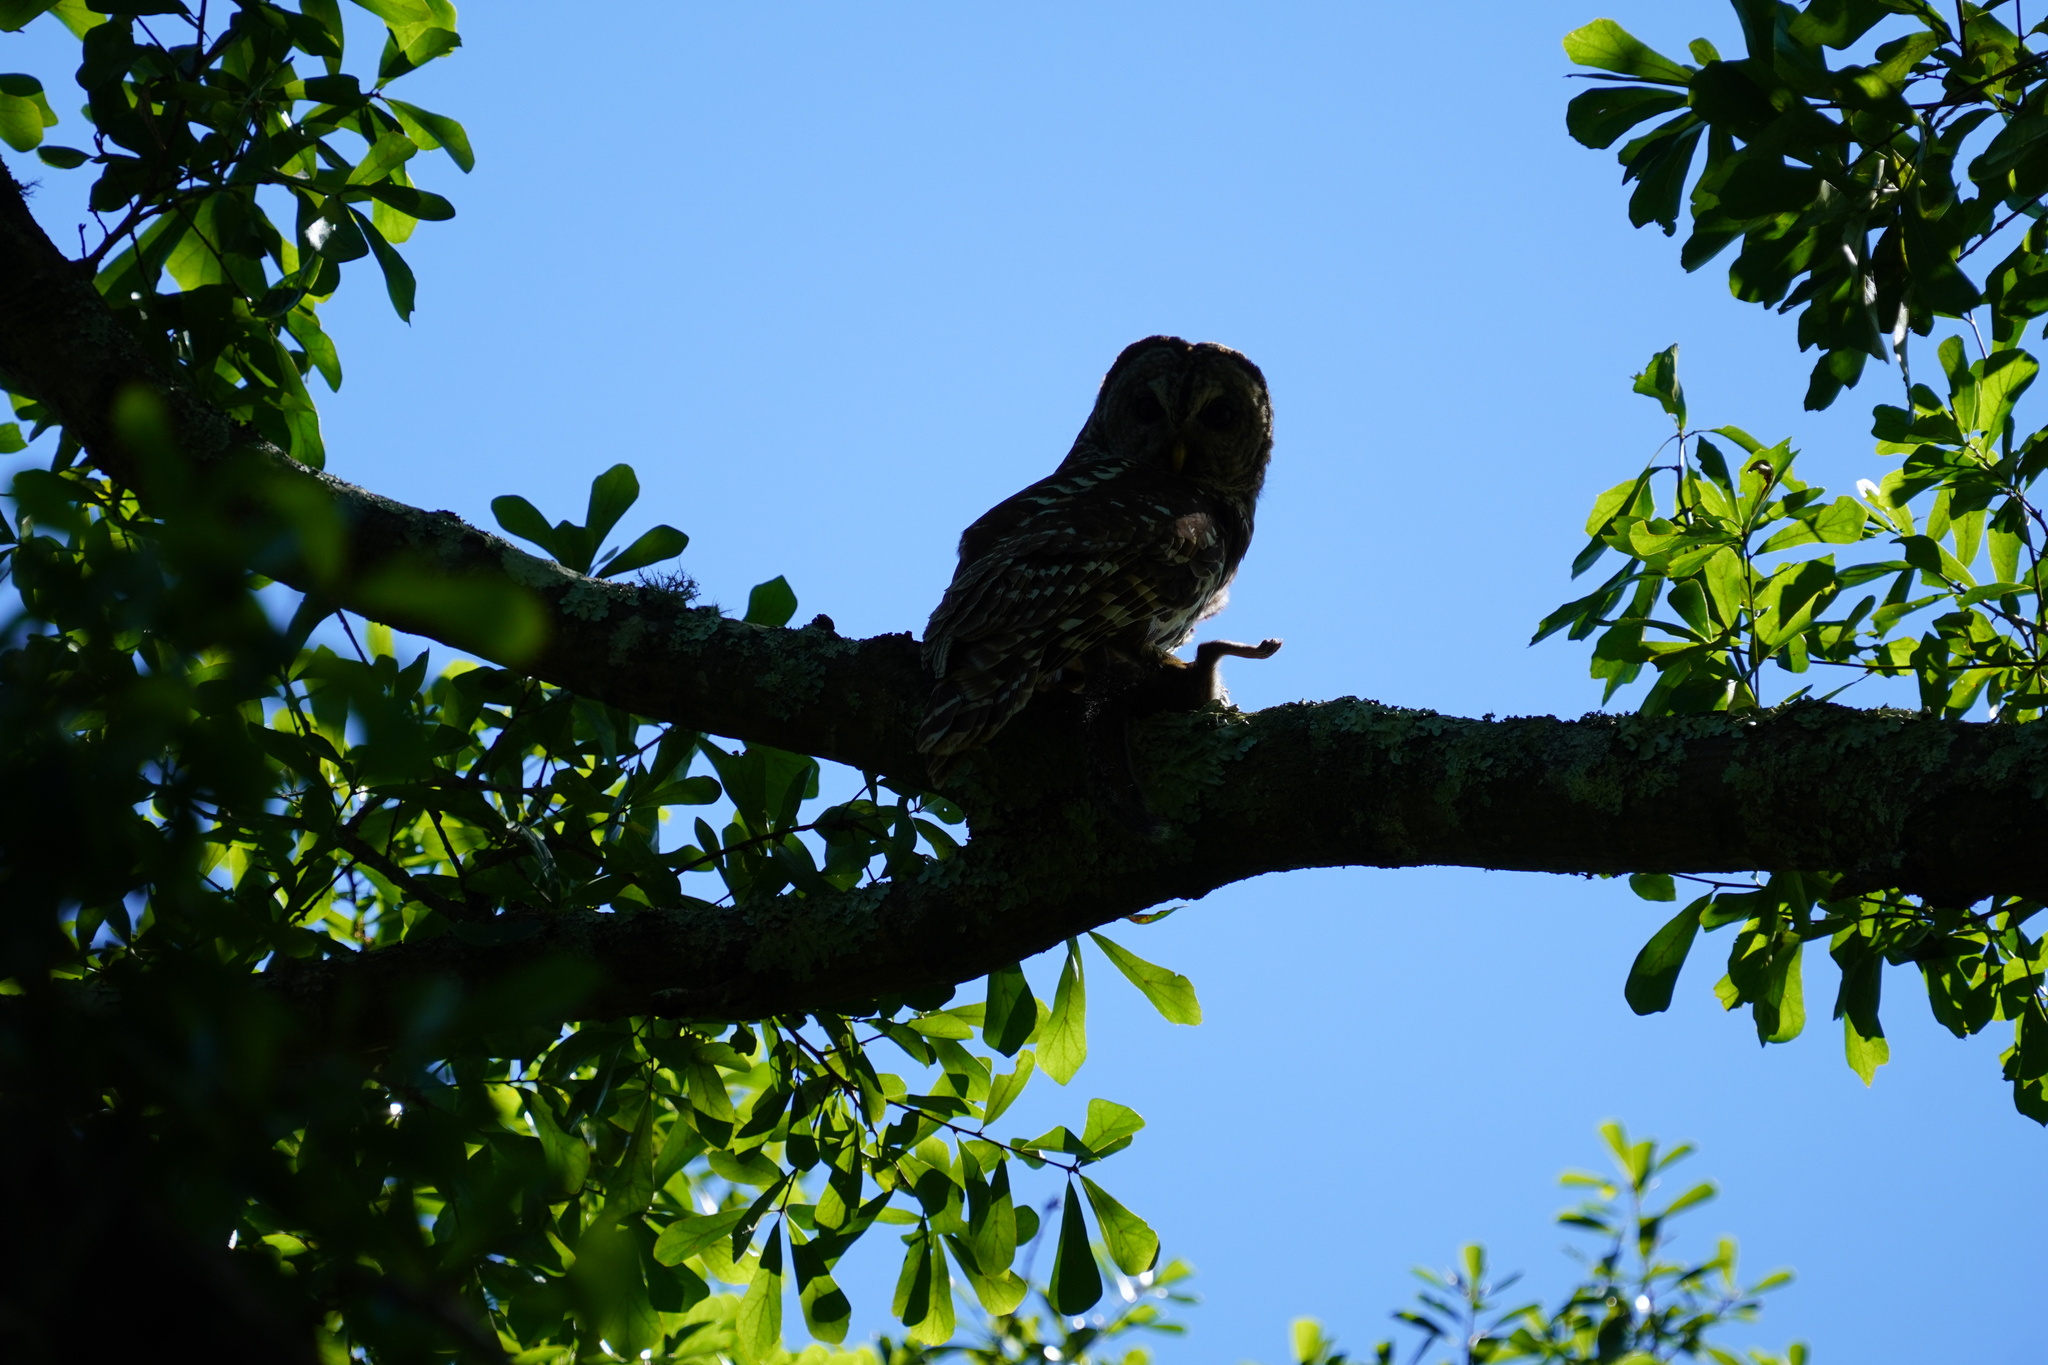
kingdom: Animalia
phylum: Chordata
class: Aves
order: Strigiformes
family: Strigidae
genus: Strix
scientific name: Strix varia
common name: Barred owl
